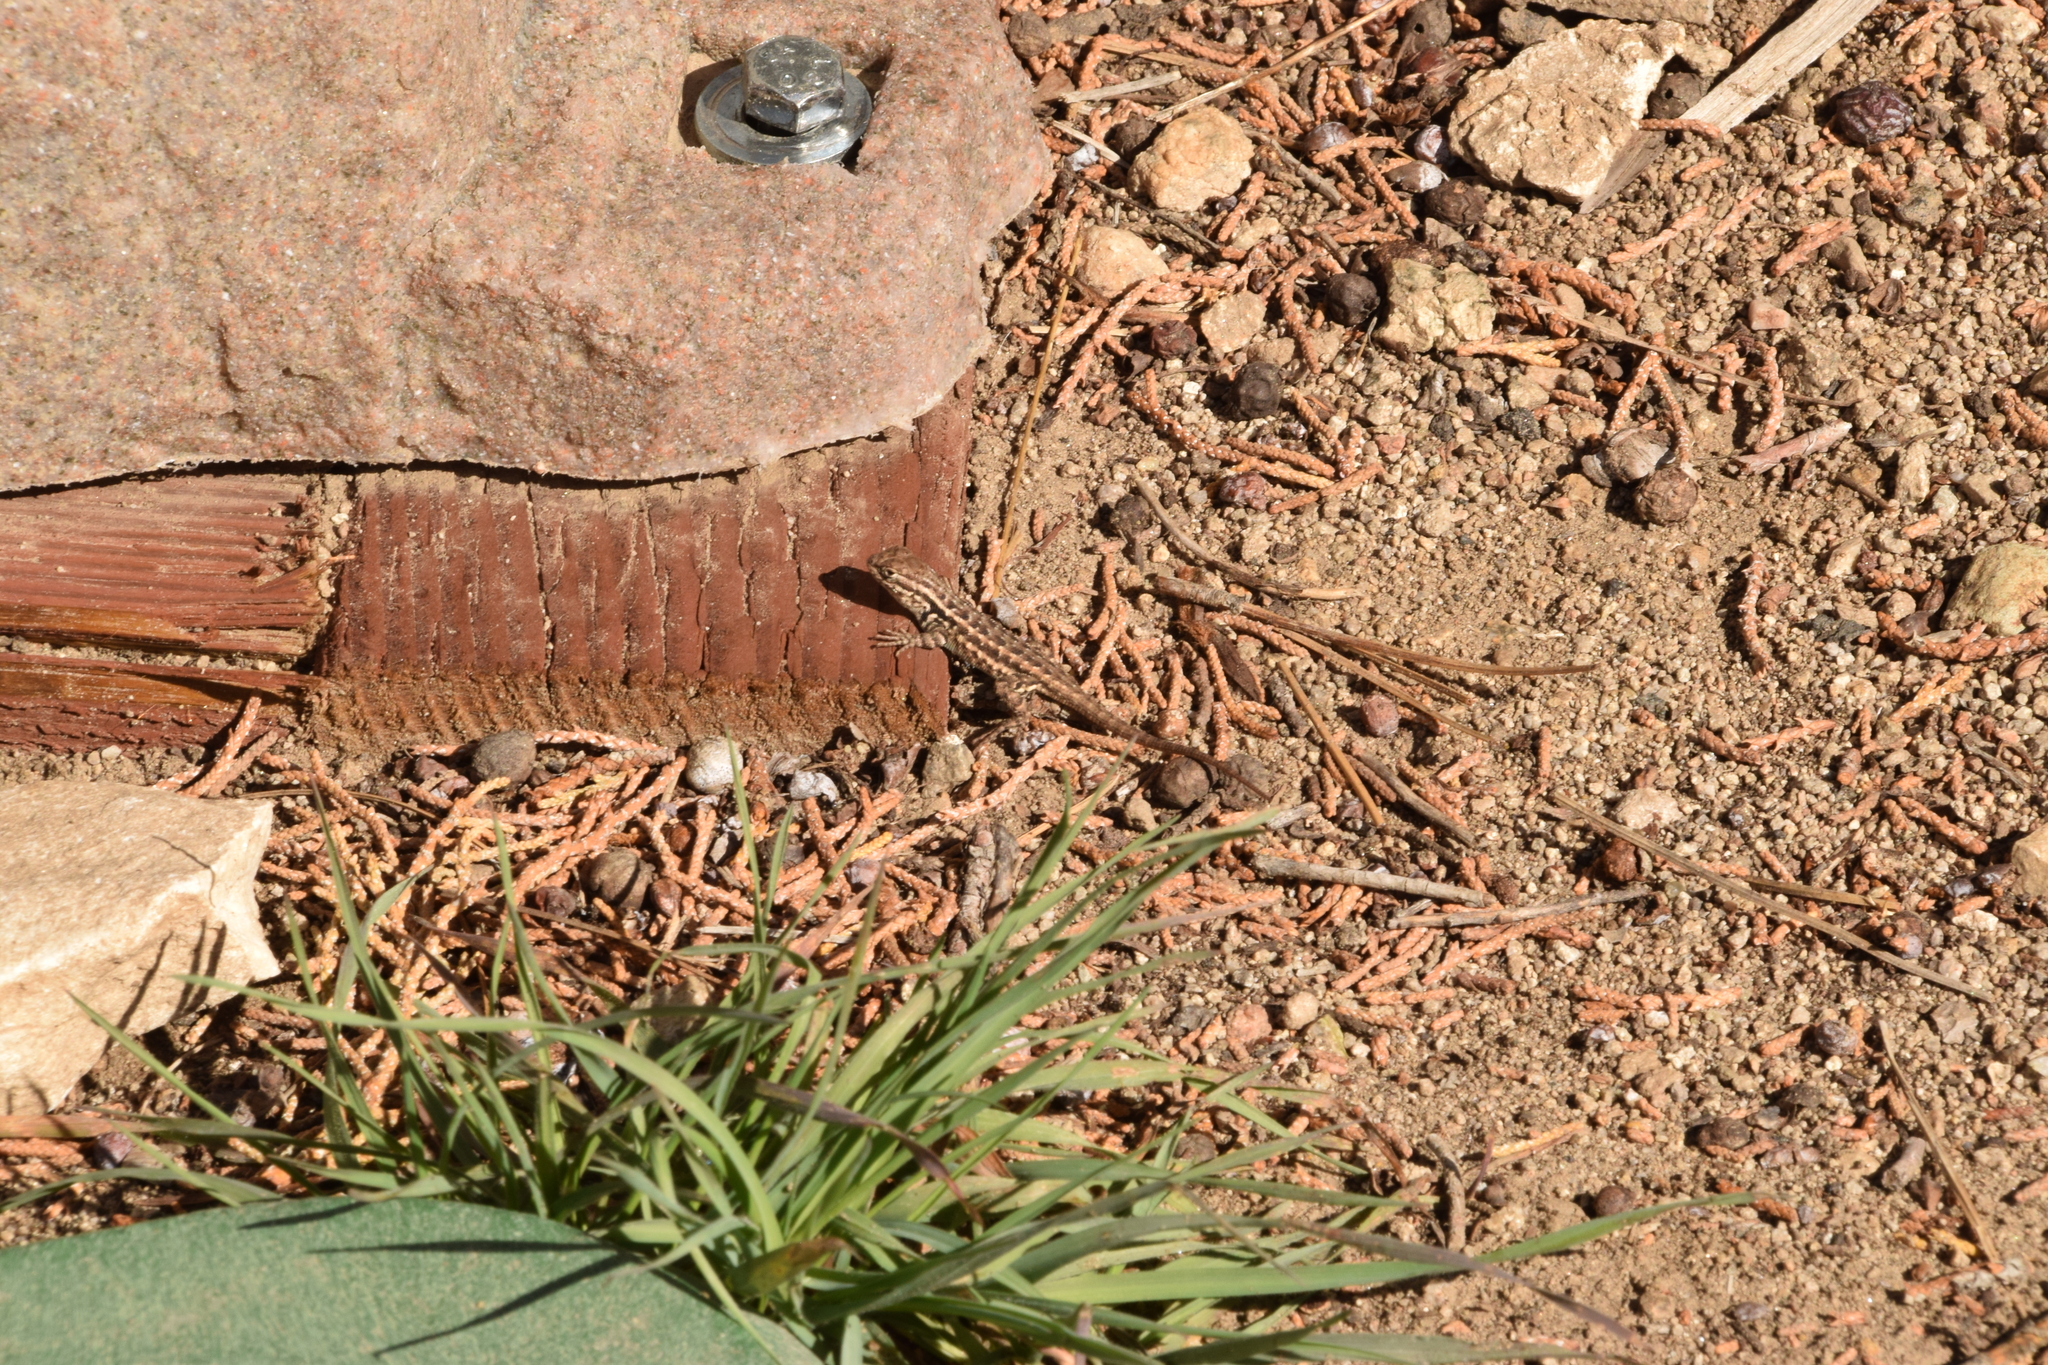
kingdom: Animalia
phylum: Chordata
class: Squamata
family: Phrynosomatidae
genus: Sceloporus
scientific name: Sceloporus graciosus
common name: Sagebrush lizard
